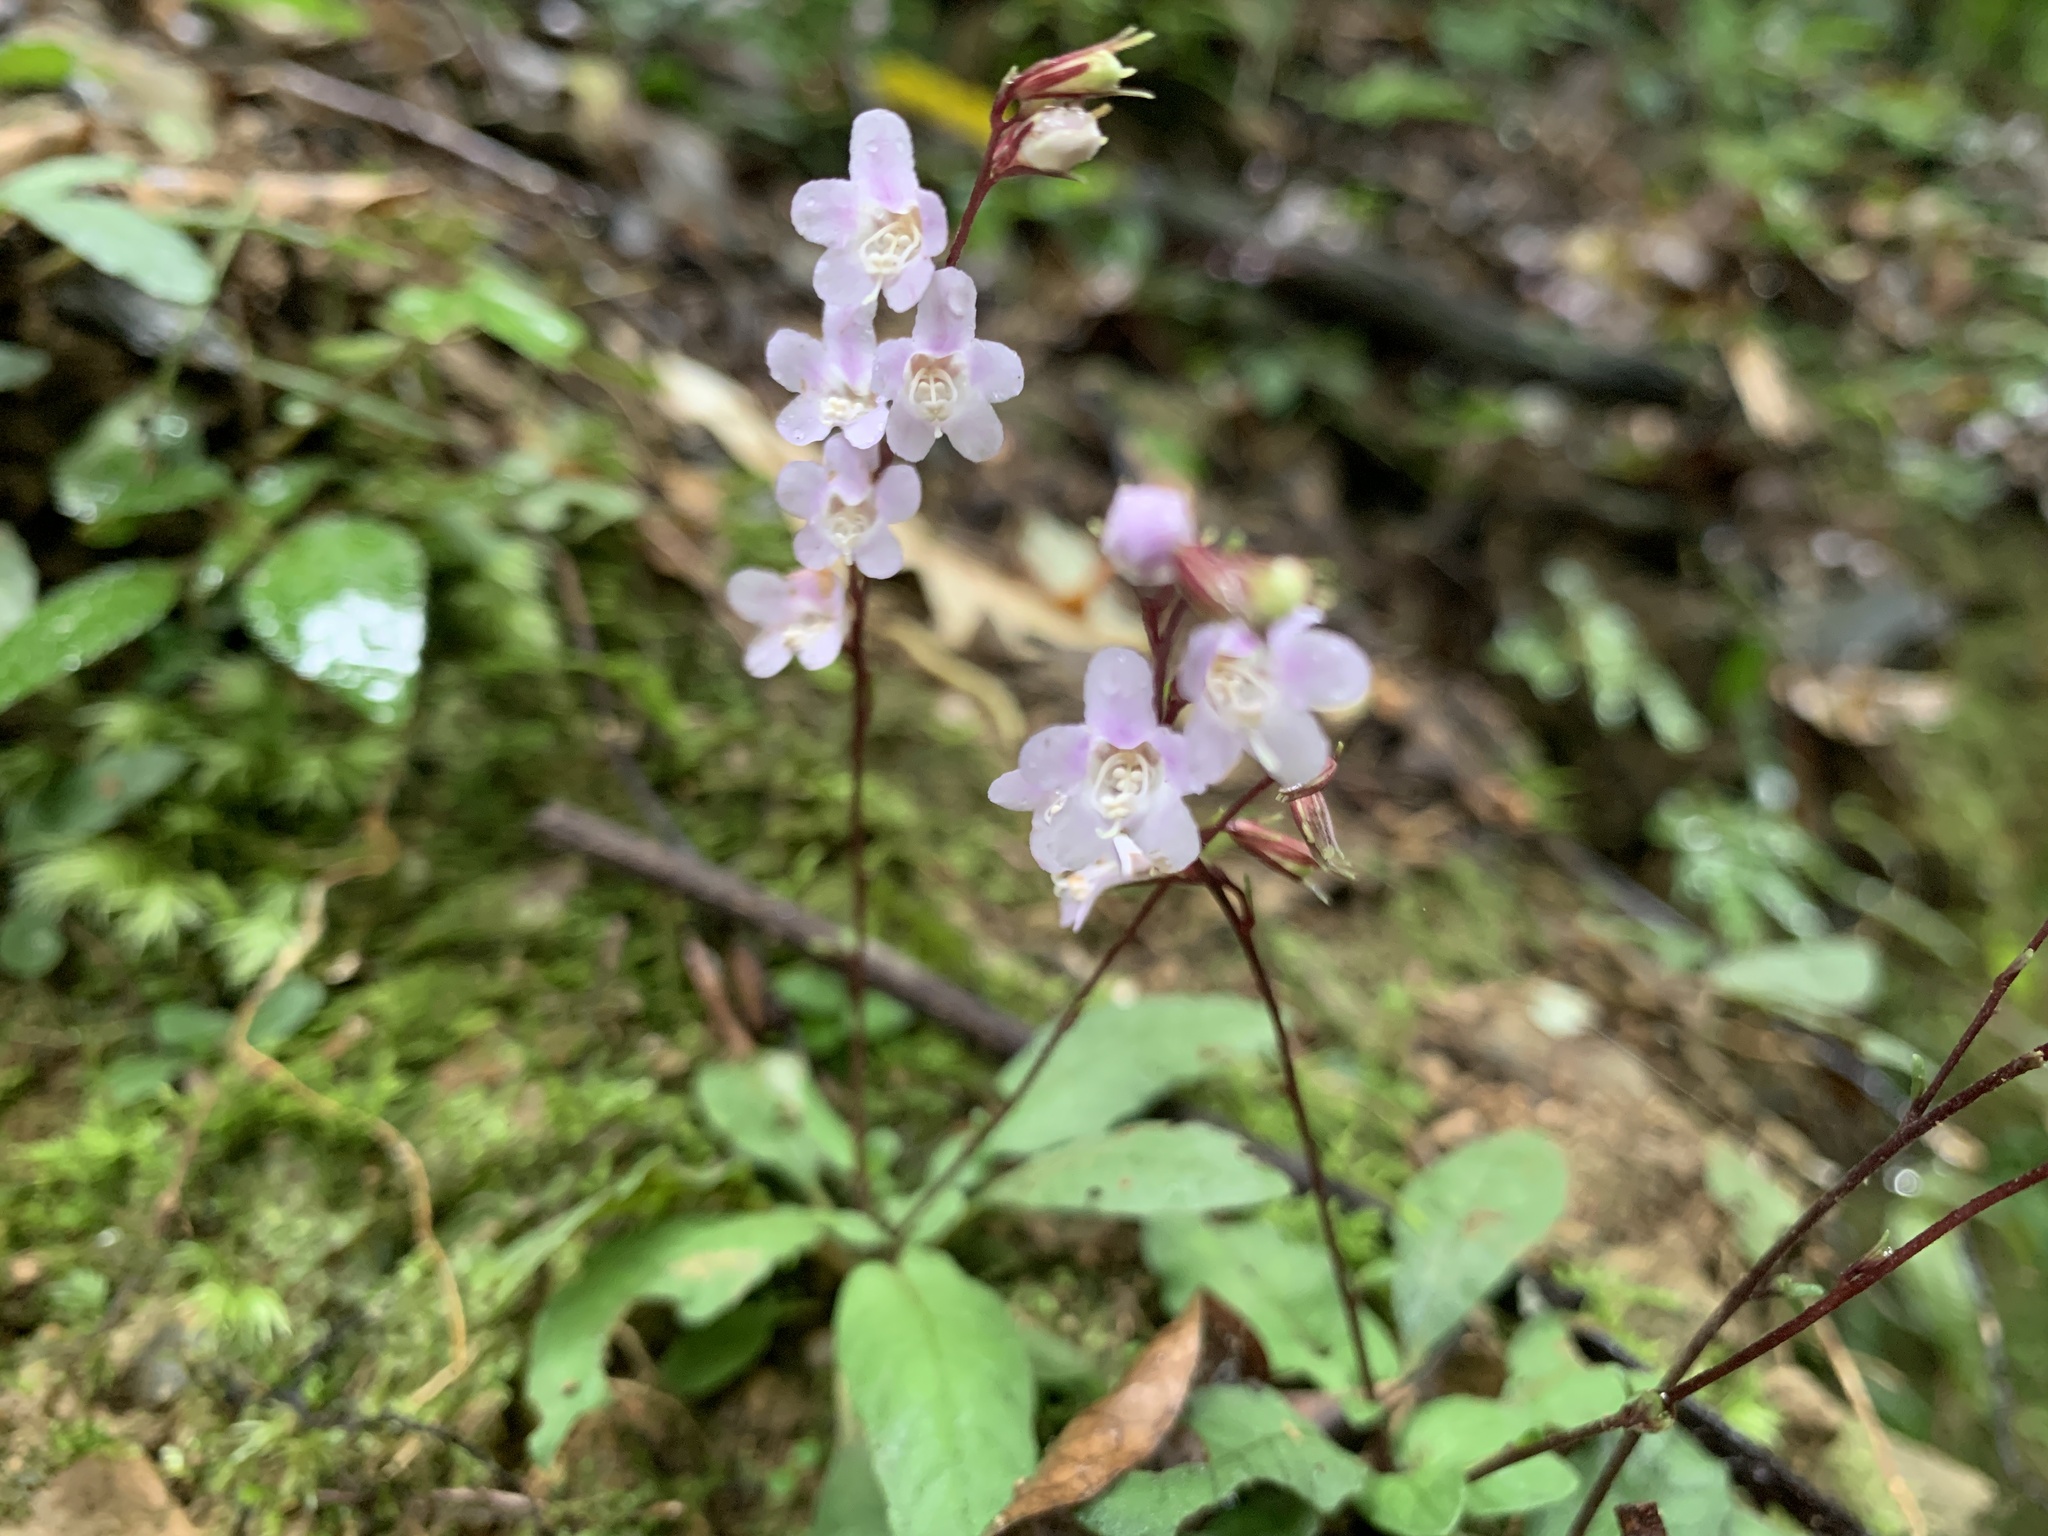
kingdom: Plantae
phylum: Tracheophyta
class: Magnoliopsida
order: Lamiales
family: Acanthaceae
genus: Staurogyne
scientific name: Staurogyne concinnula
